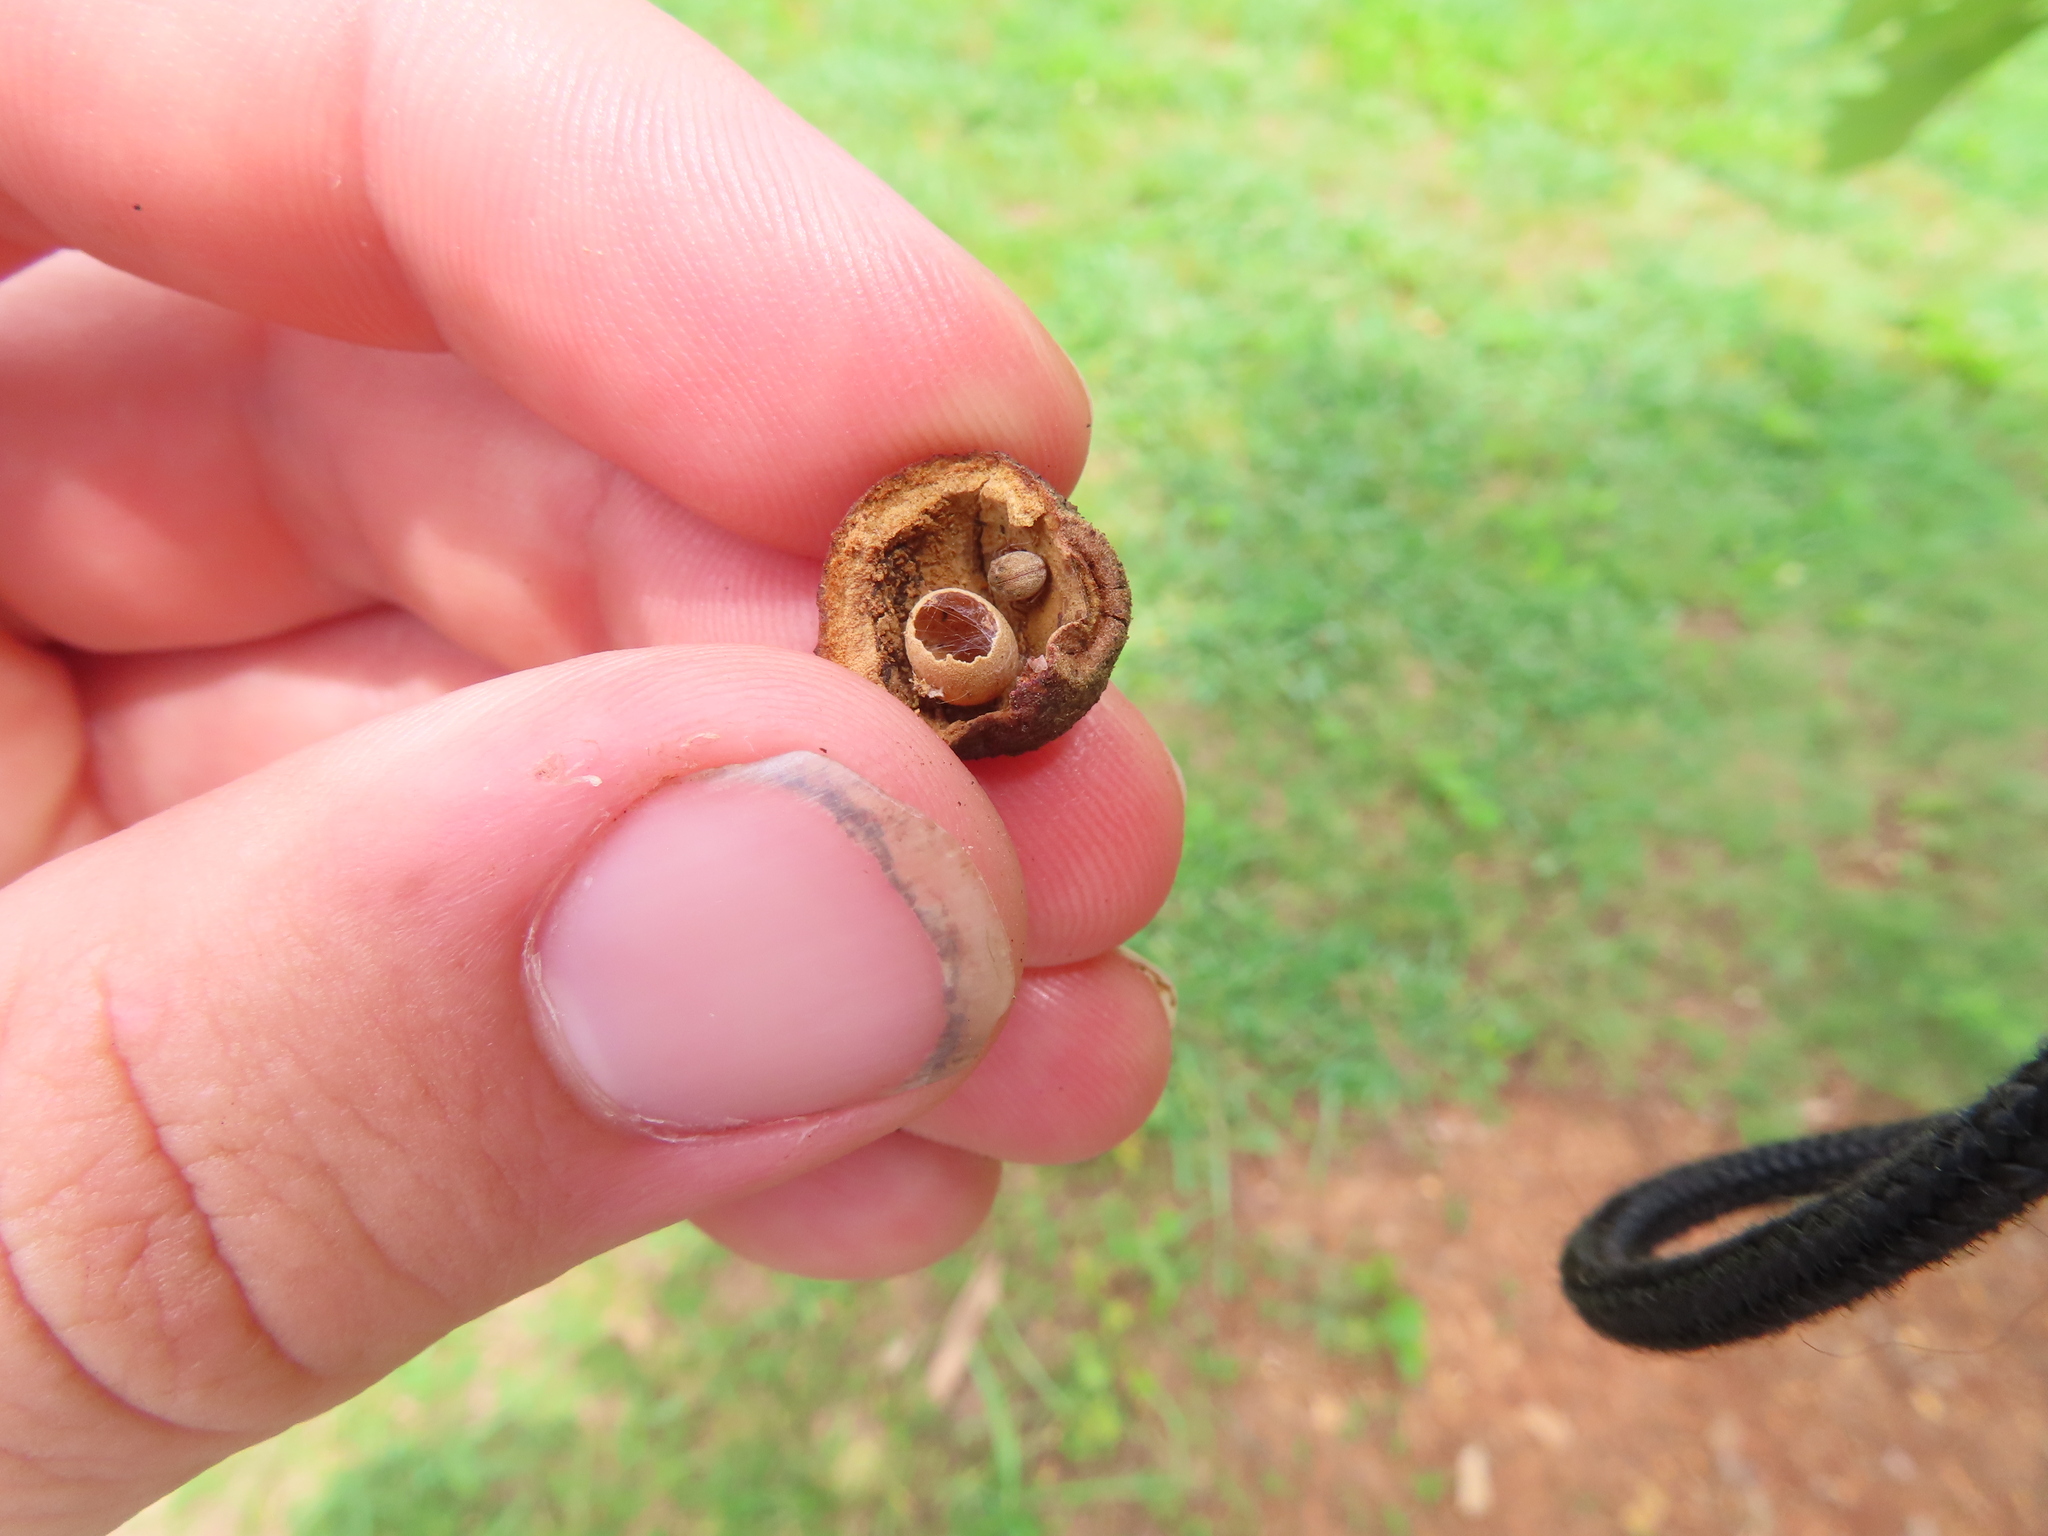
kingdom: Animalia
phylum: Arthropoda
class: Insecta
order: Hymenoptera
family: Cynipidae
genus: Disholcaspis
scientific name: Disholcaspis
